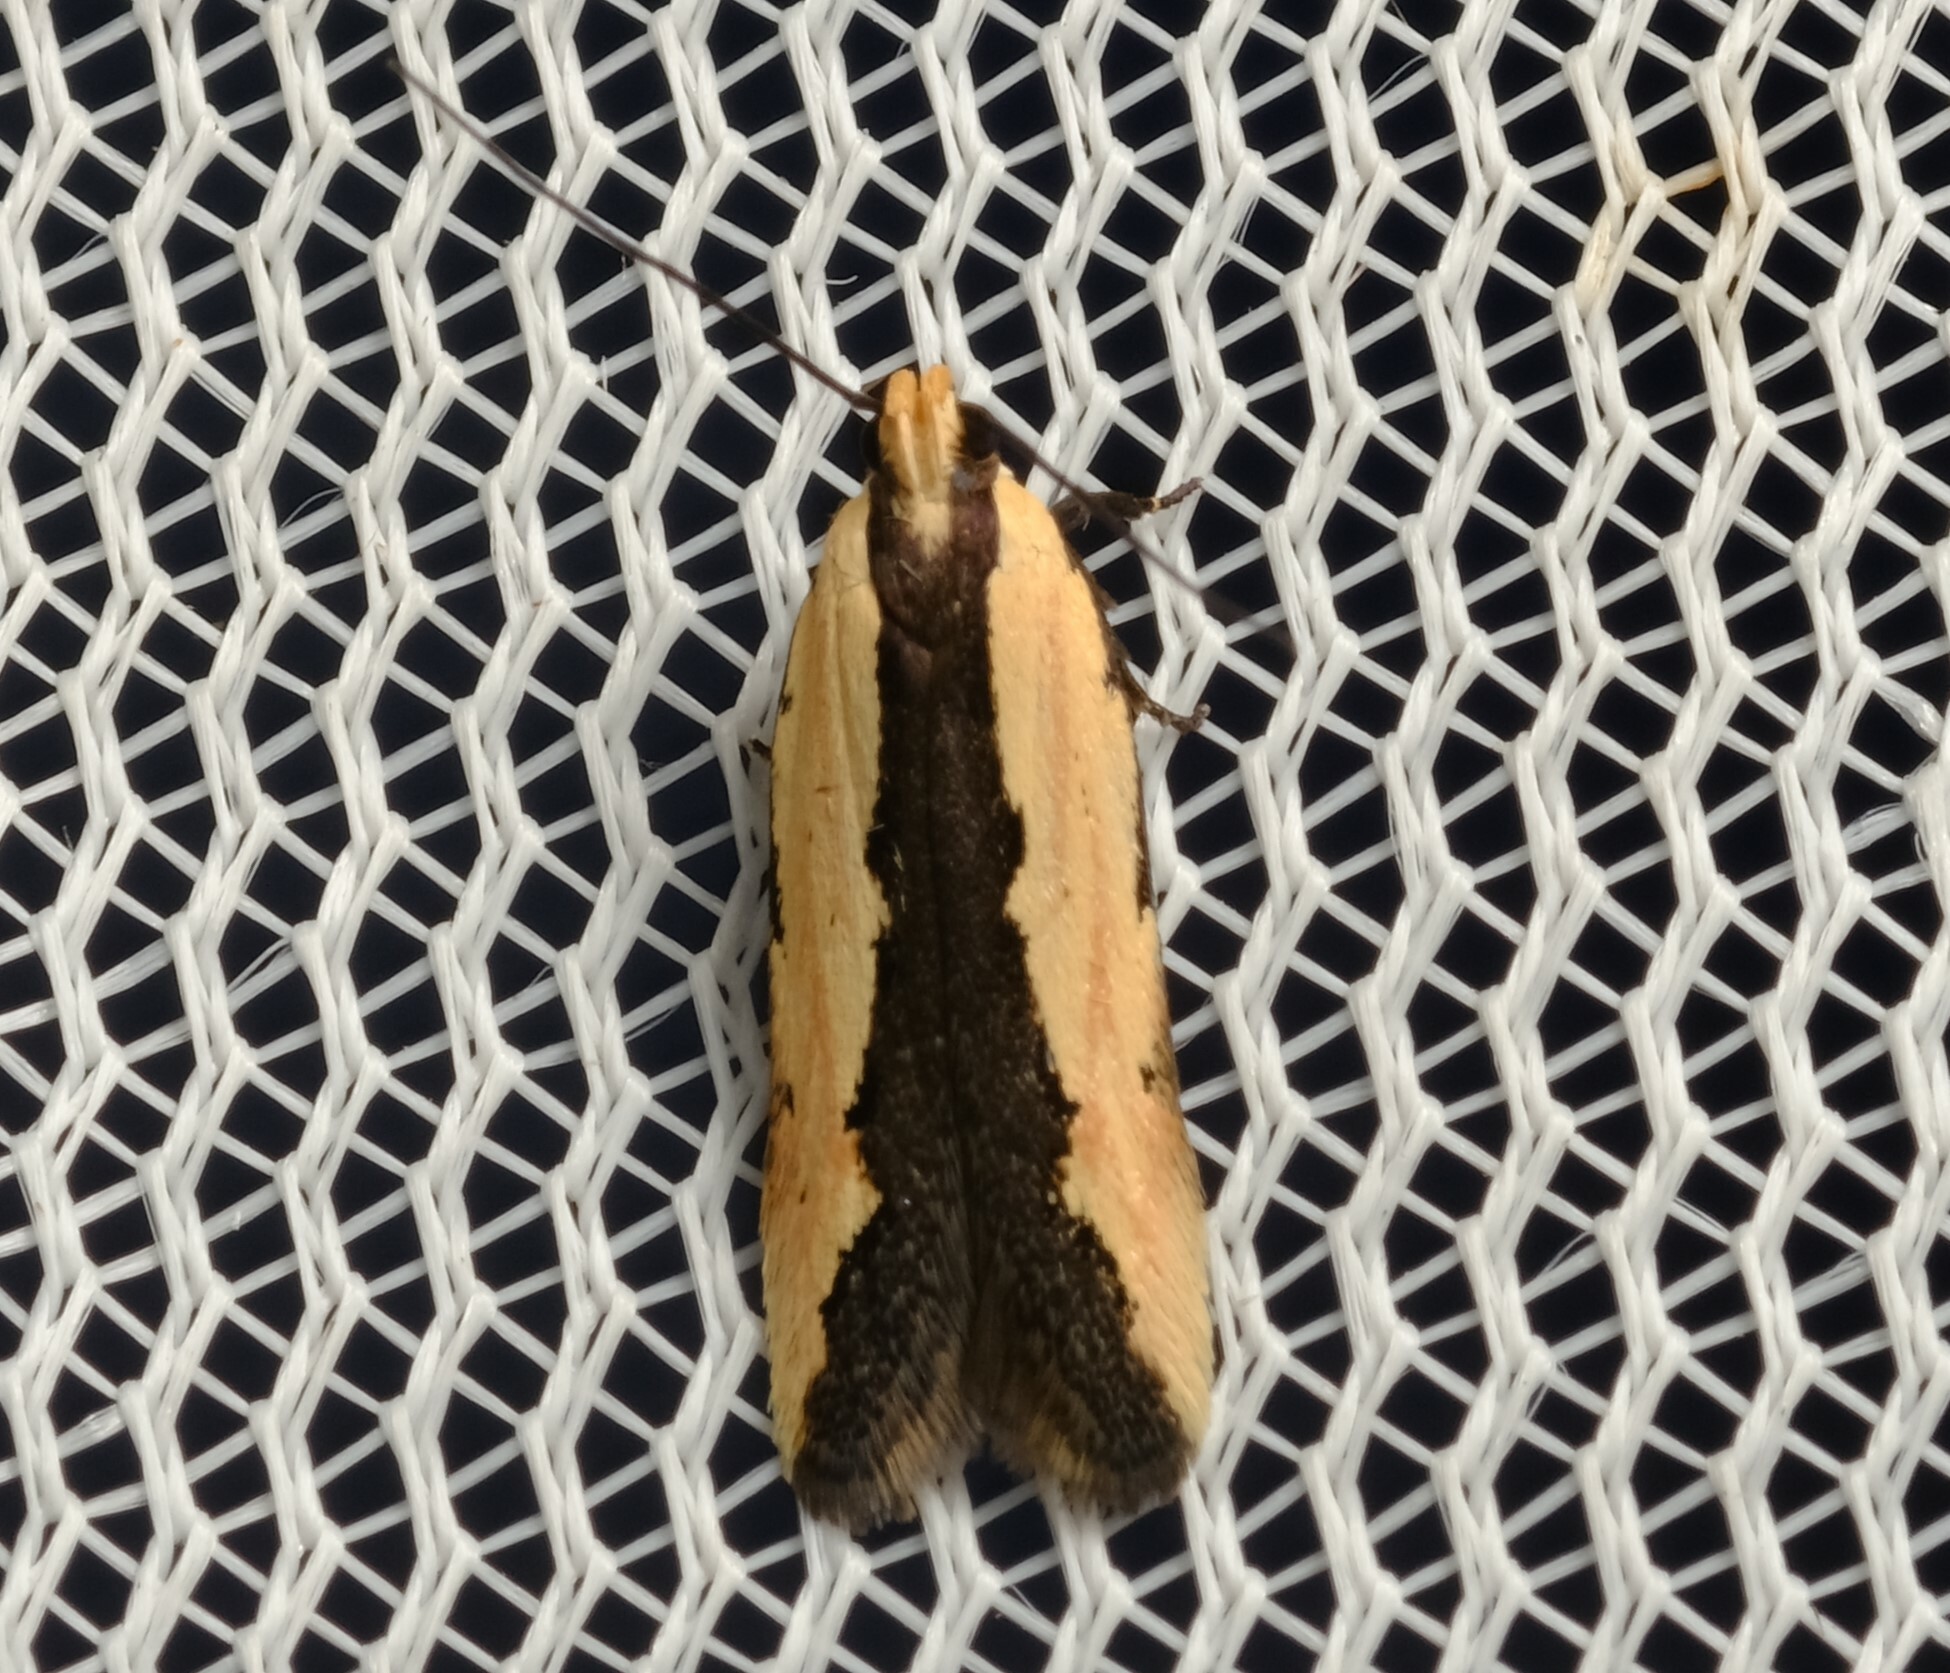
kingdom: Animalia
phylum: Arthropoda
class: Insecta
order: Lepidoptera
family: Gelechiidae
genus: Ardozyga
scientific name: Ardozyga catarrhacta
